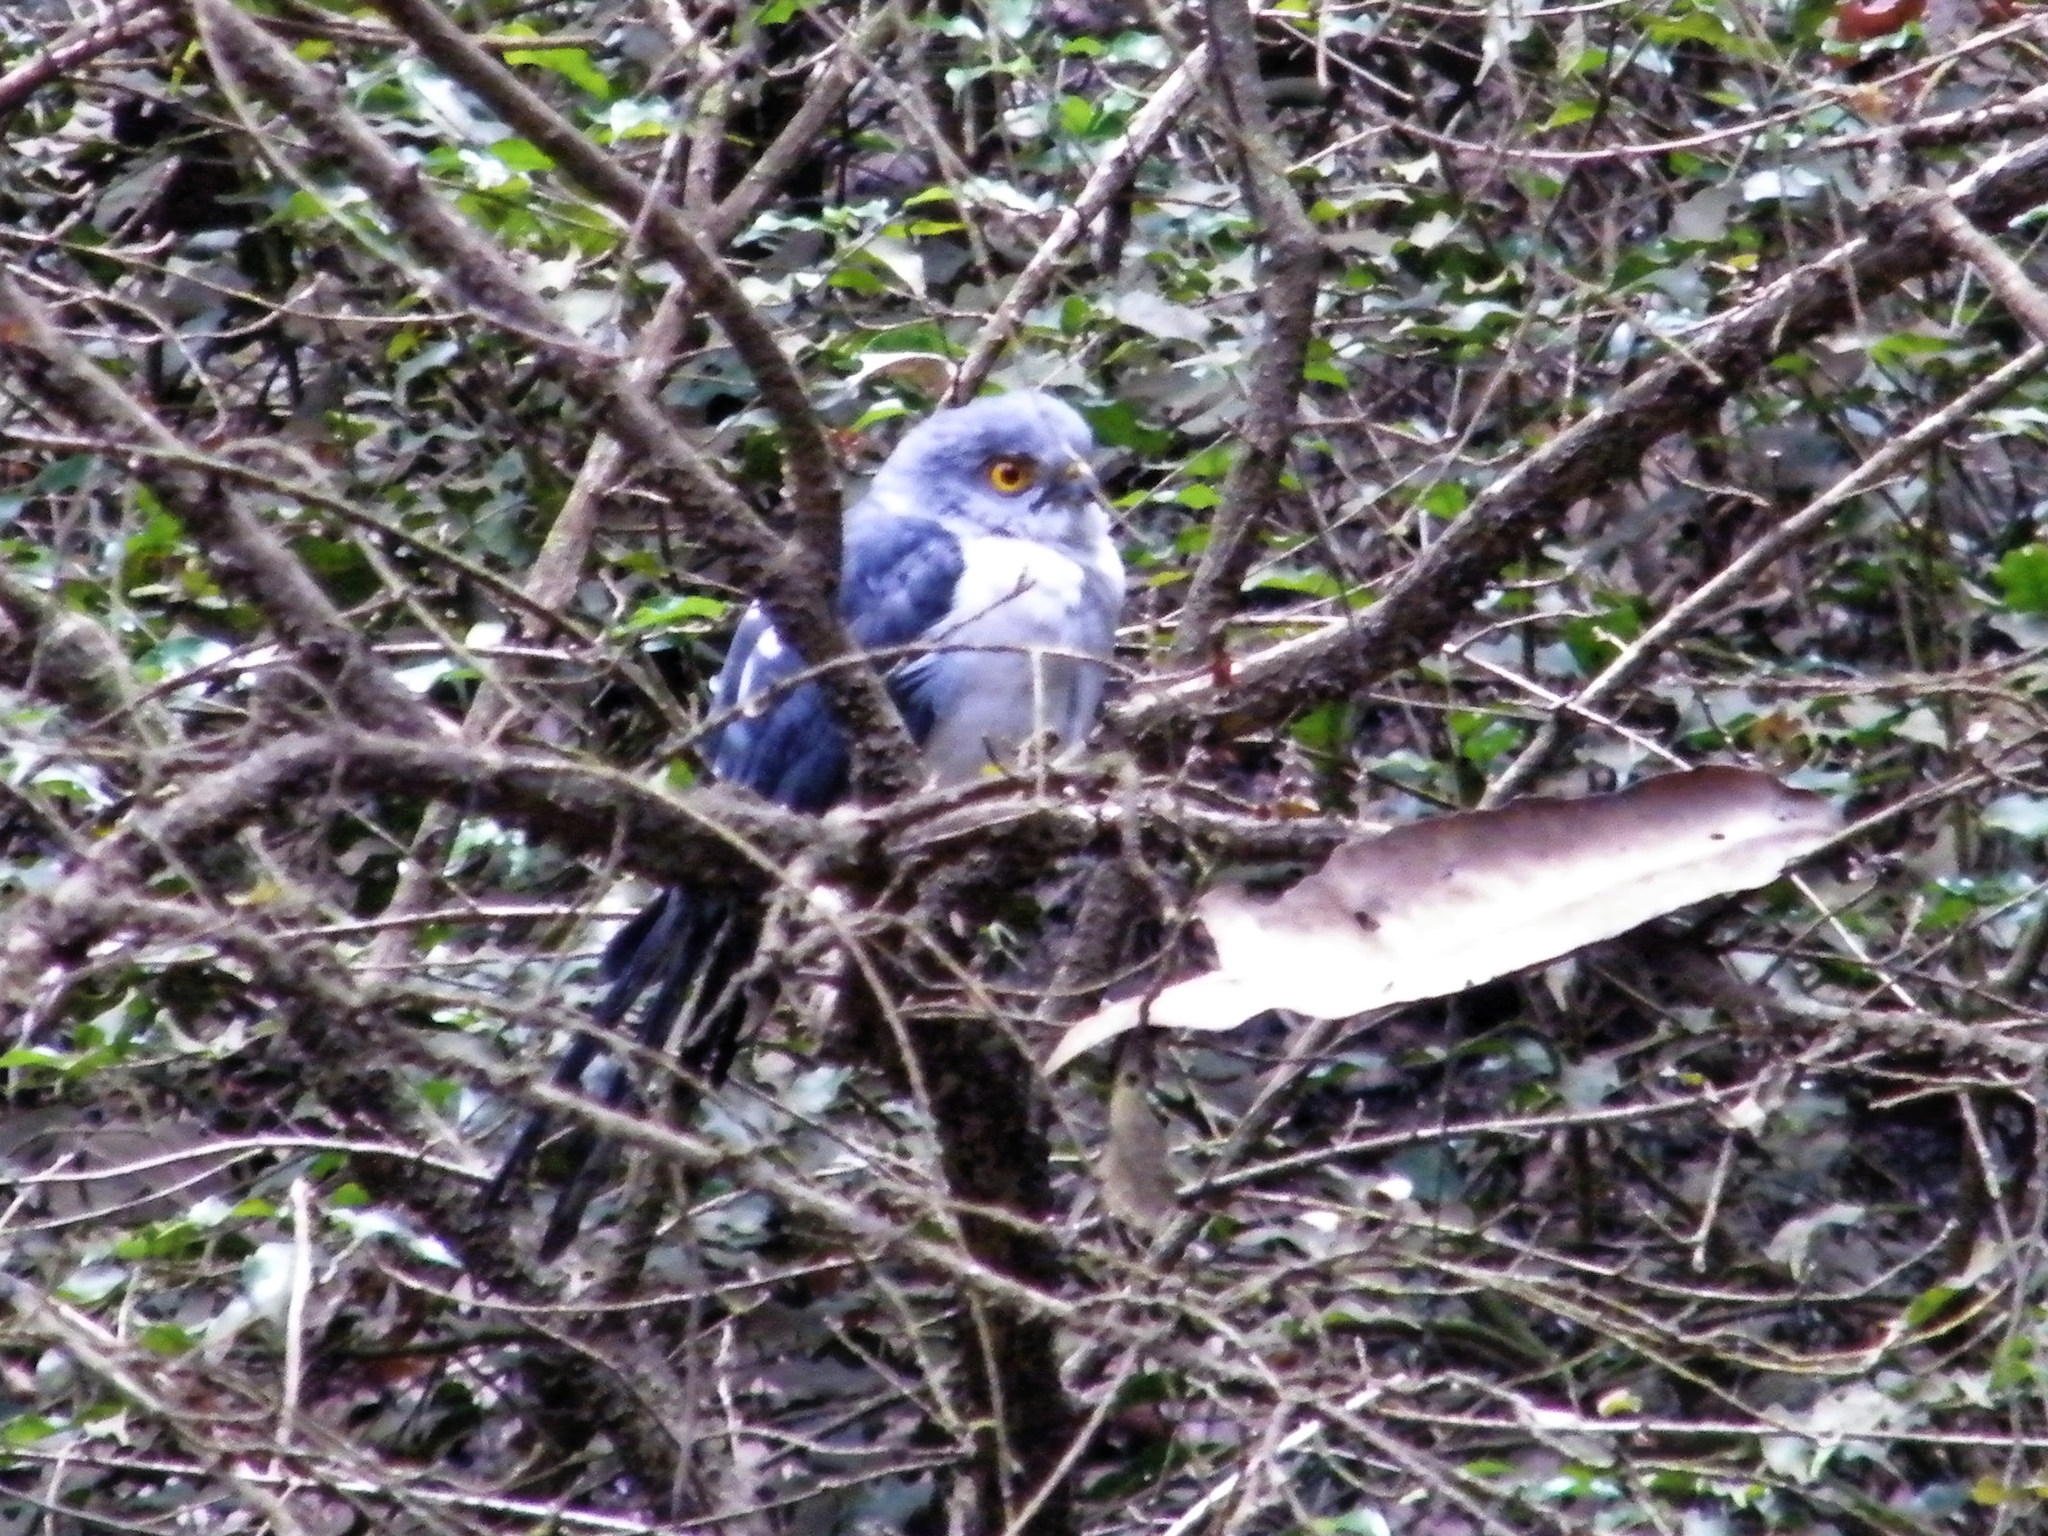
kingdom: Animalia
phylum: Chordata
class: Aves
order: Accipitriformes
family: Accipitridae
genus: Accipiter
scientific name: Accipiter francesiae
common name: Frances's sparrowhawk
